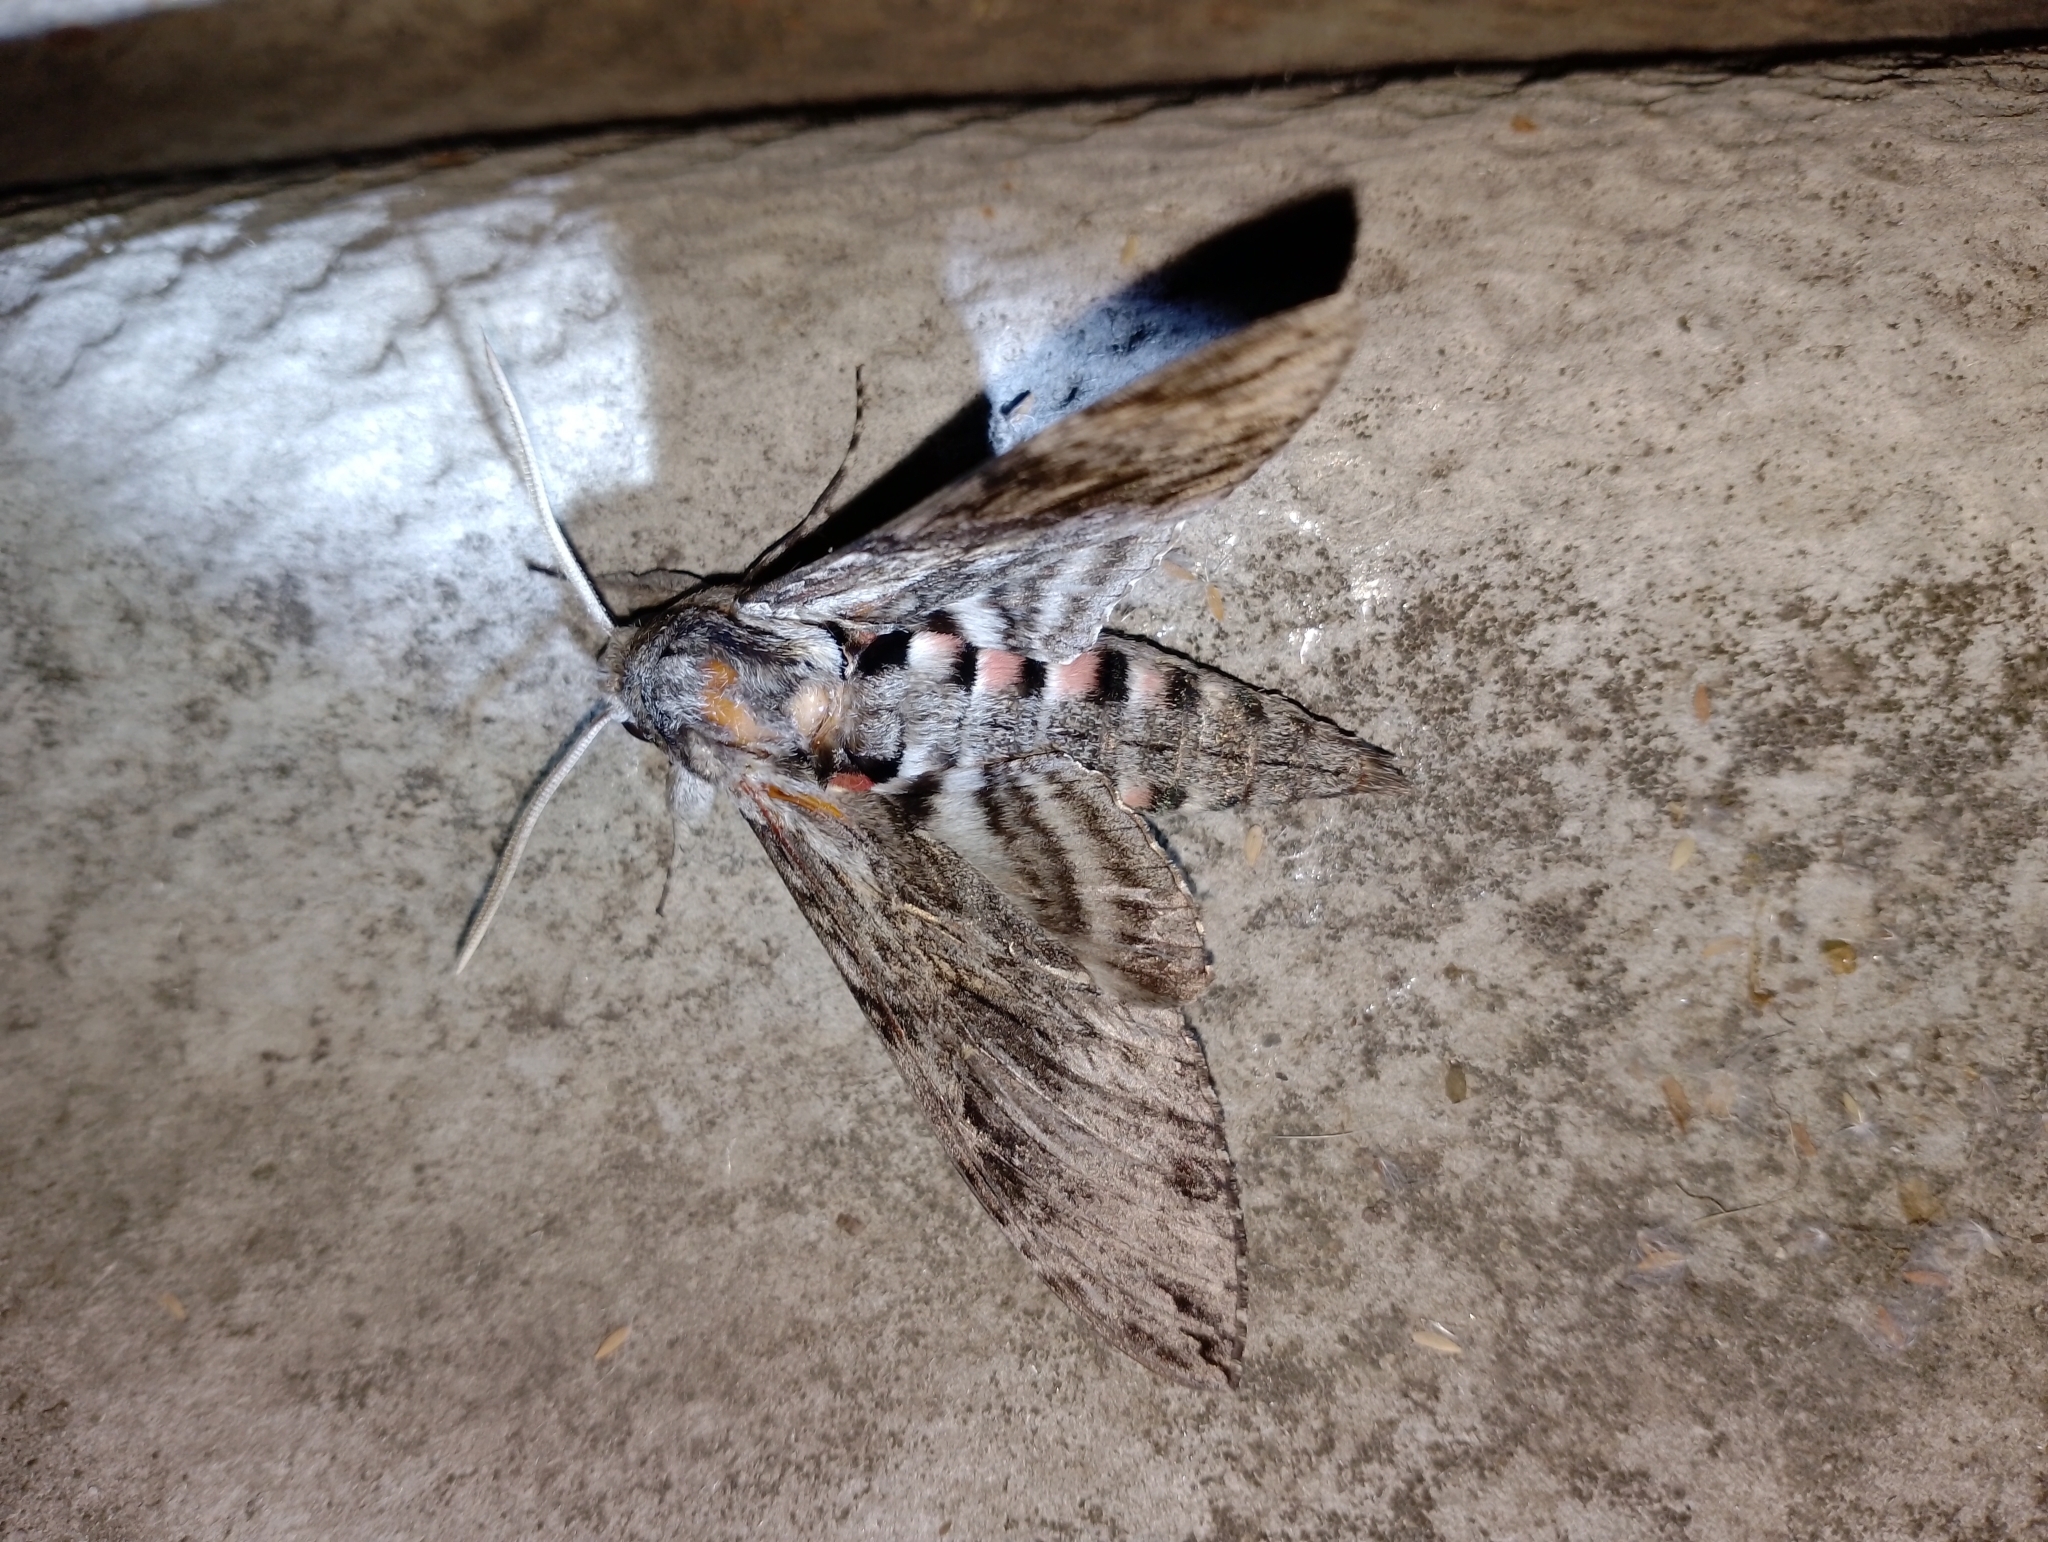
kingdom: Animalia
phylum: Arthropoda
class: Insecta
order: Lepidoptera
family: Sphingidae
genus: Agrius
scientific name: Agrius convolvuli
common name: Convolvulus hawkmoth
